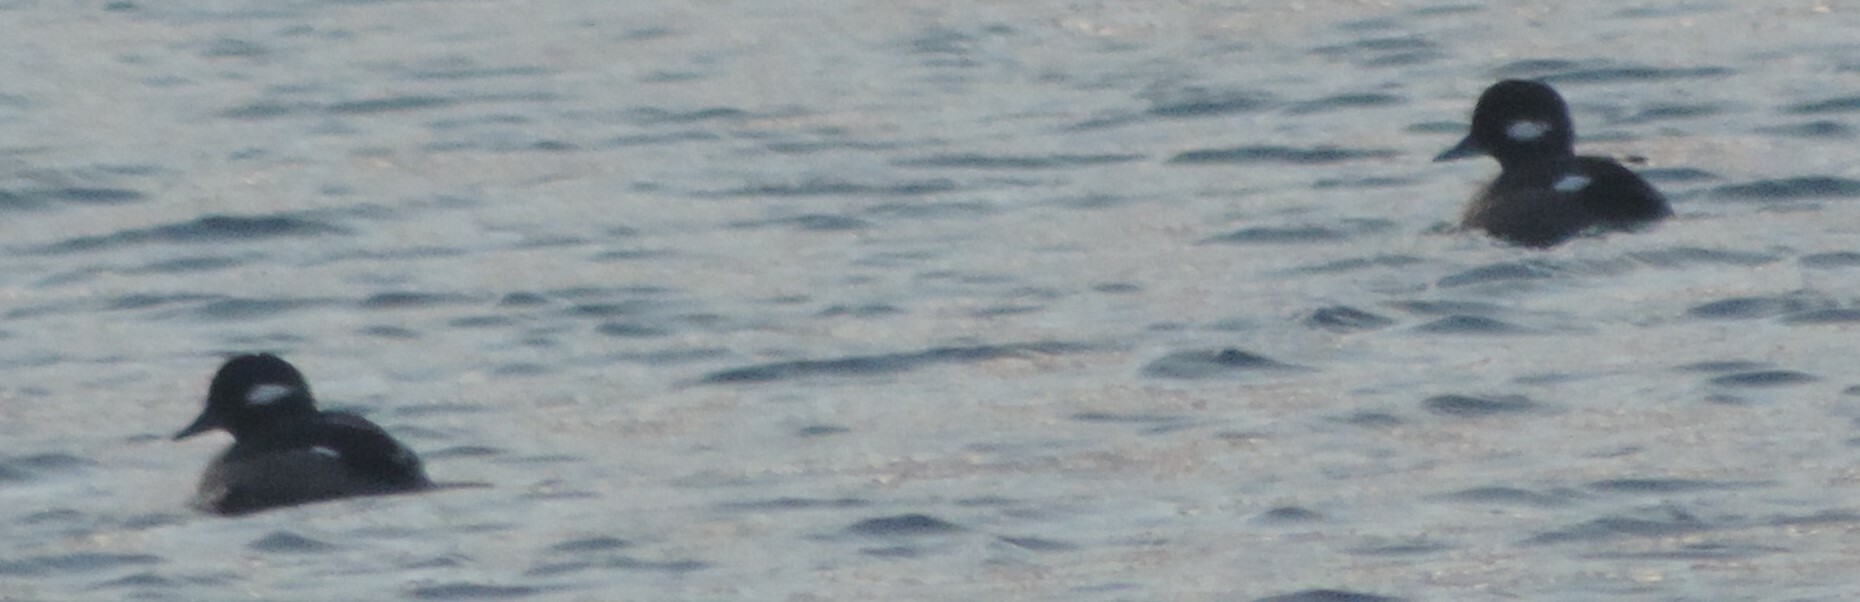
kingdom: Animalia
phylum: Chordata
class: Aves
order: Anseriformes
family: Anatidae
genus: Bucephala
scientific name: Bucephala albeola
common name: Bufflehead
